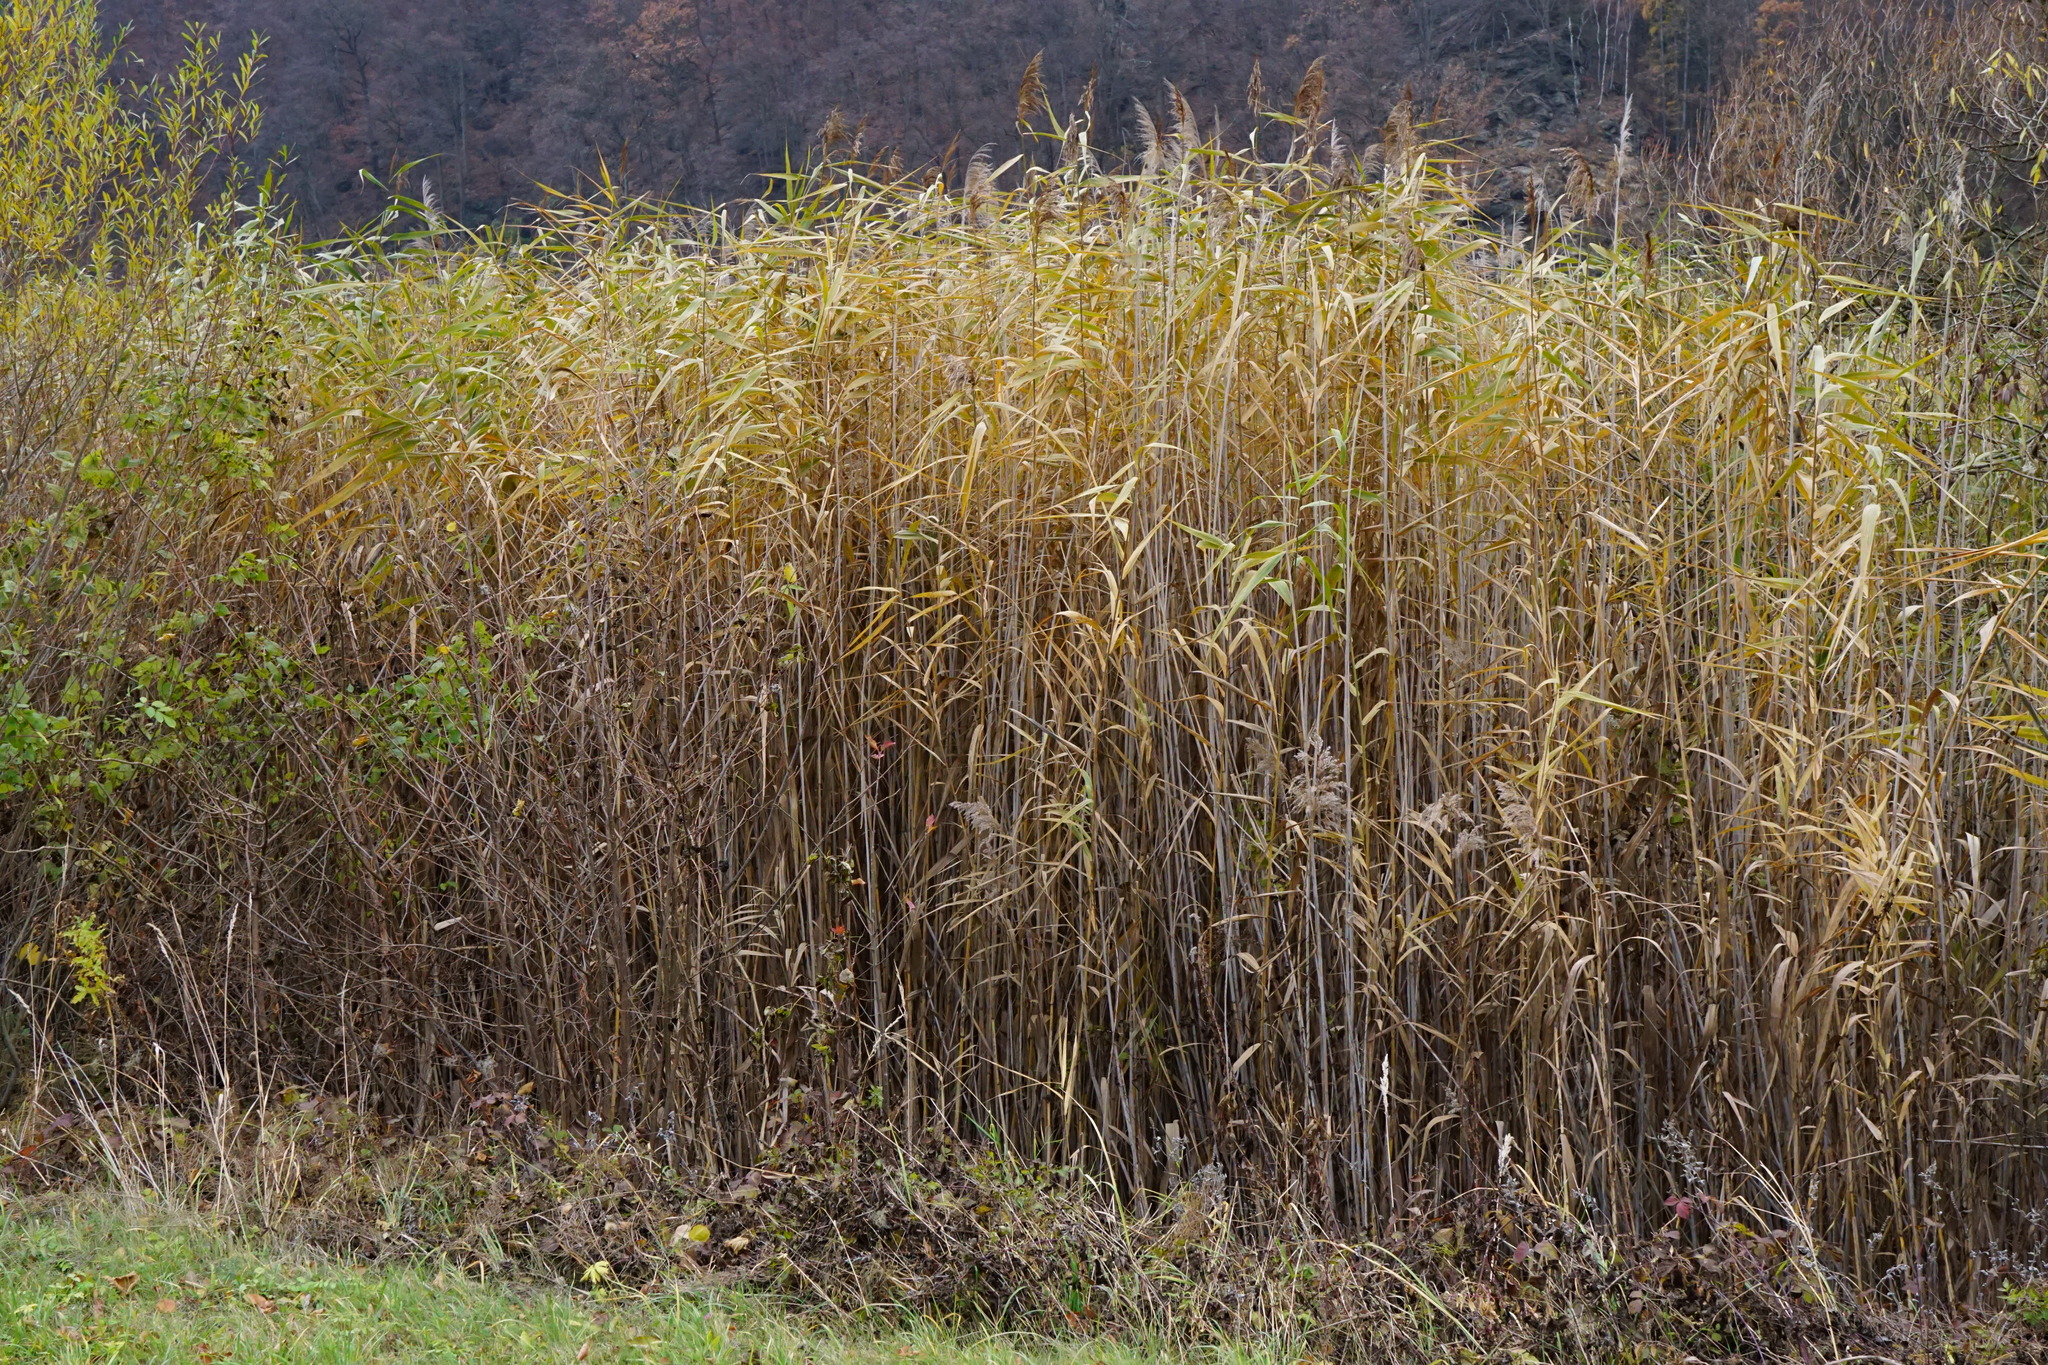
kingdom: Plantae
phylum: Tracheophyta
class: Liliopsida
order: Poales
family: Poaceae
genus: Phragmites
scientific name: Phragmites australis
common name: Common reed
